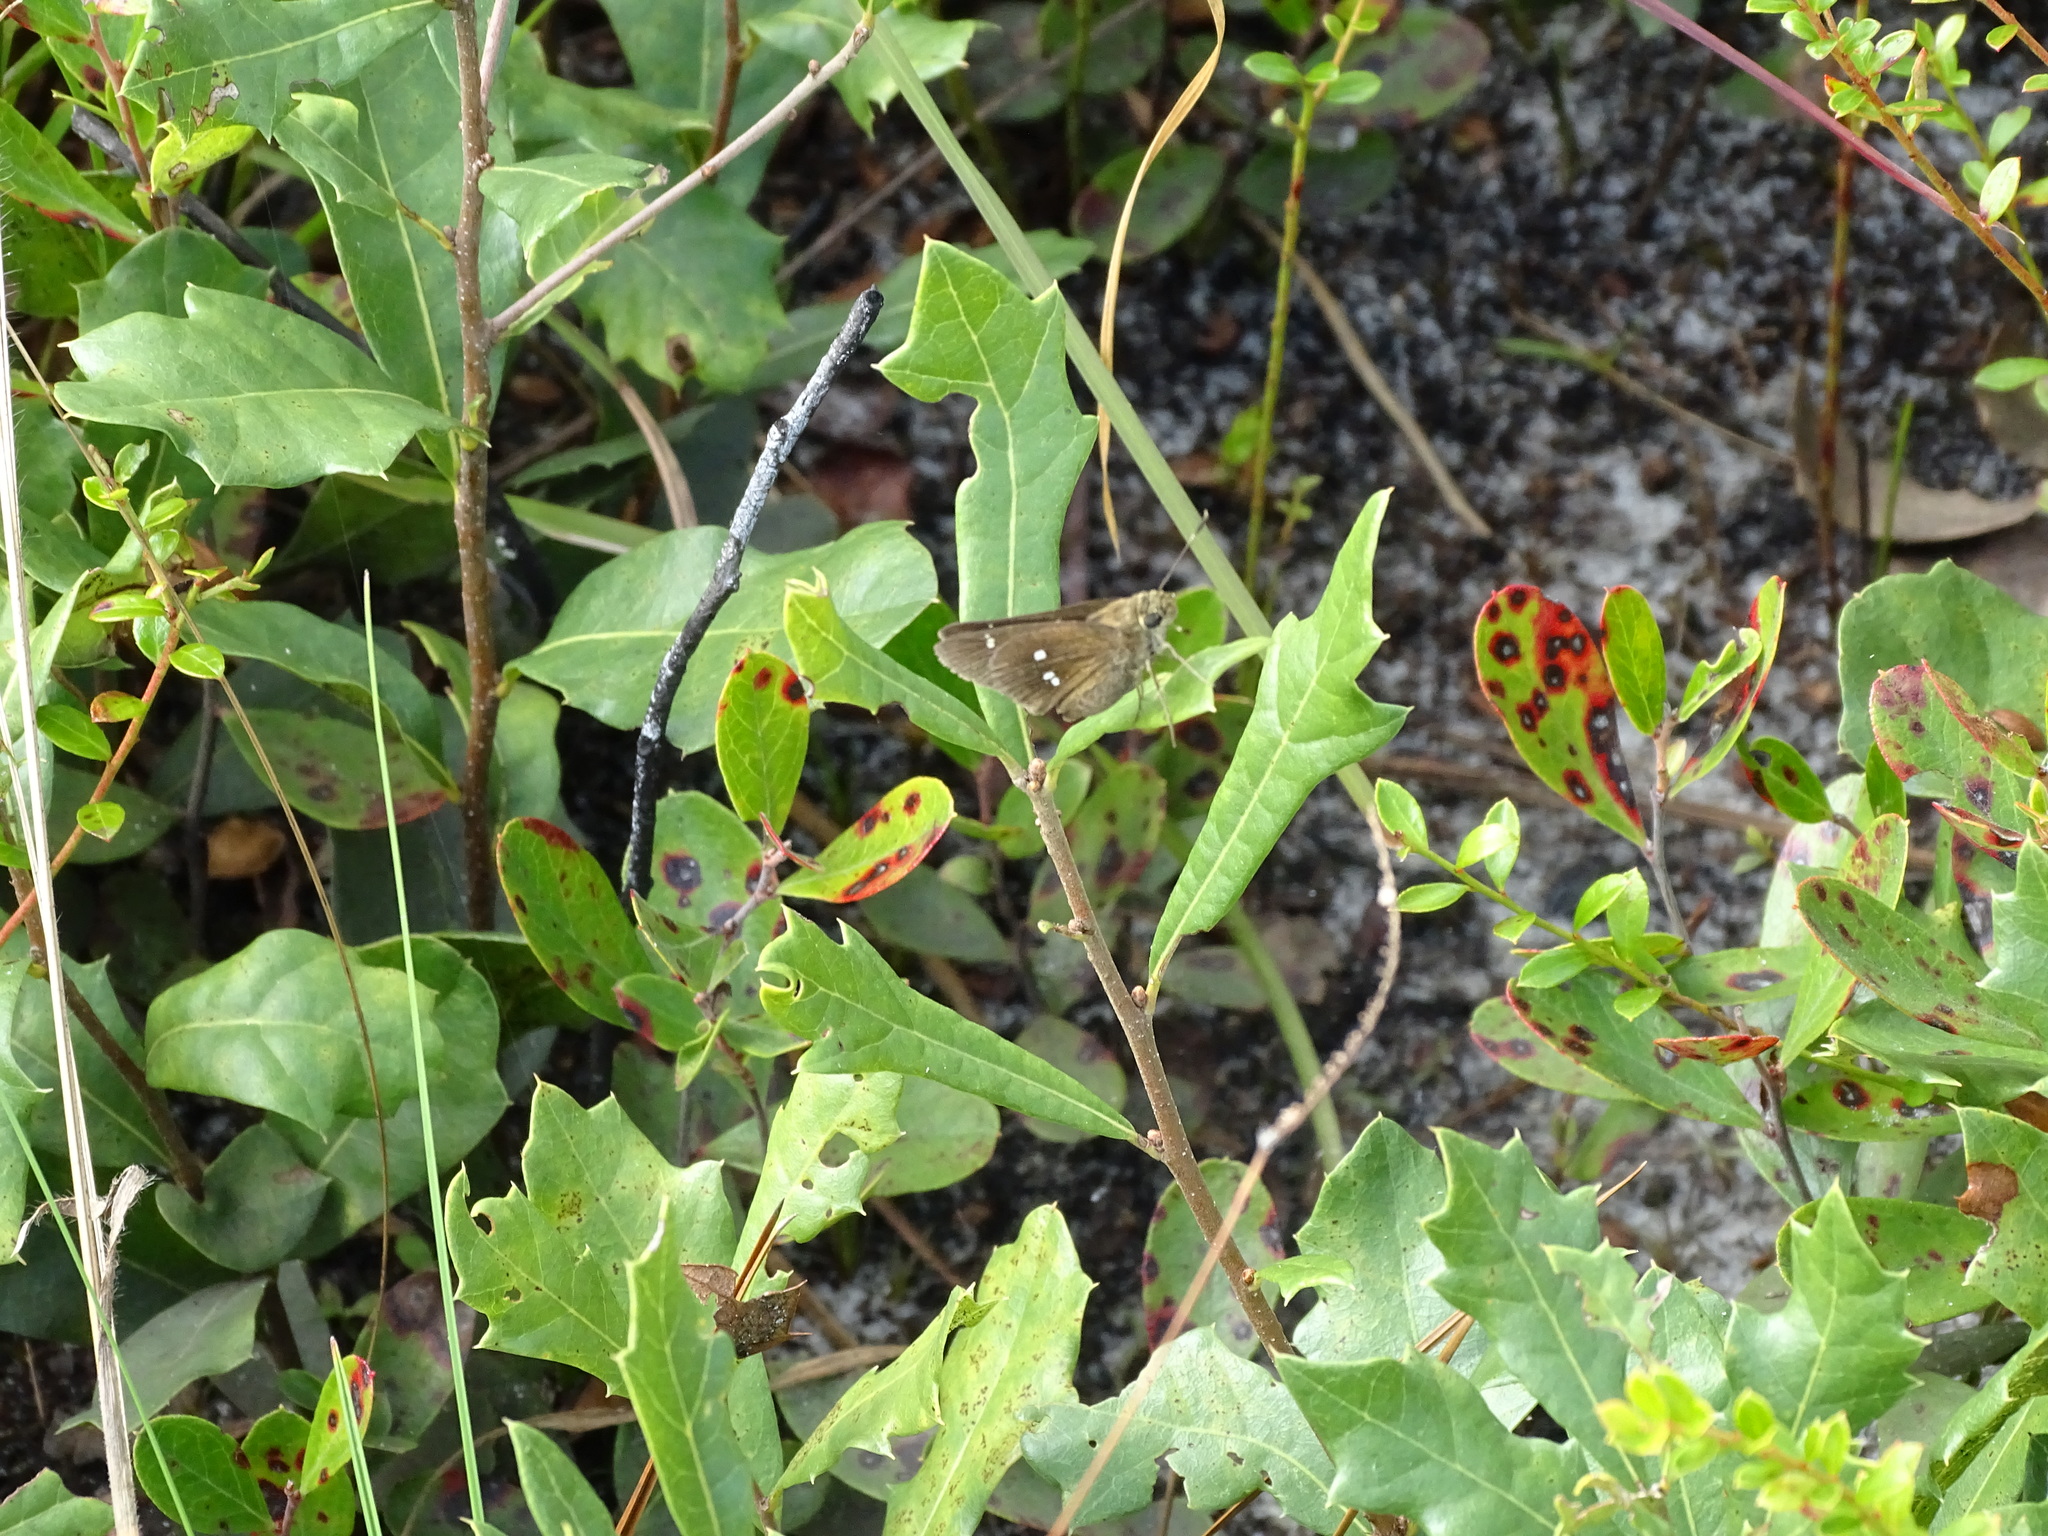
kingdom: Animalia
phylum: Arthropoda
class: Insecta
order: Lepidoptera
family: Hesperiidae
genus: Oligoria
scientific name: Oligoria maculata
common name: Twin-spot skipper
